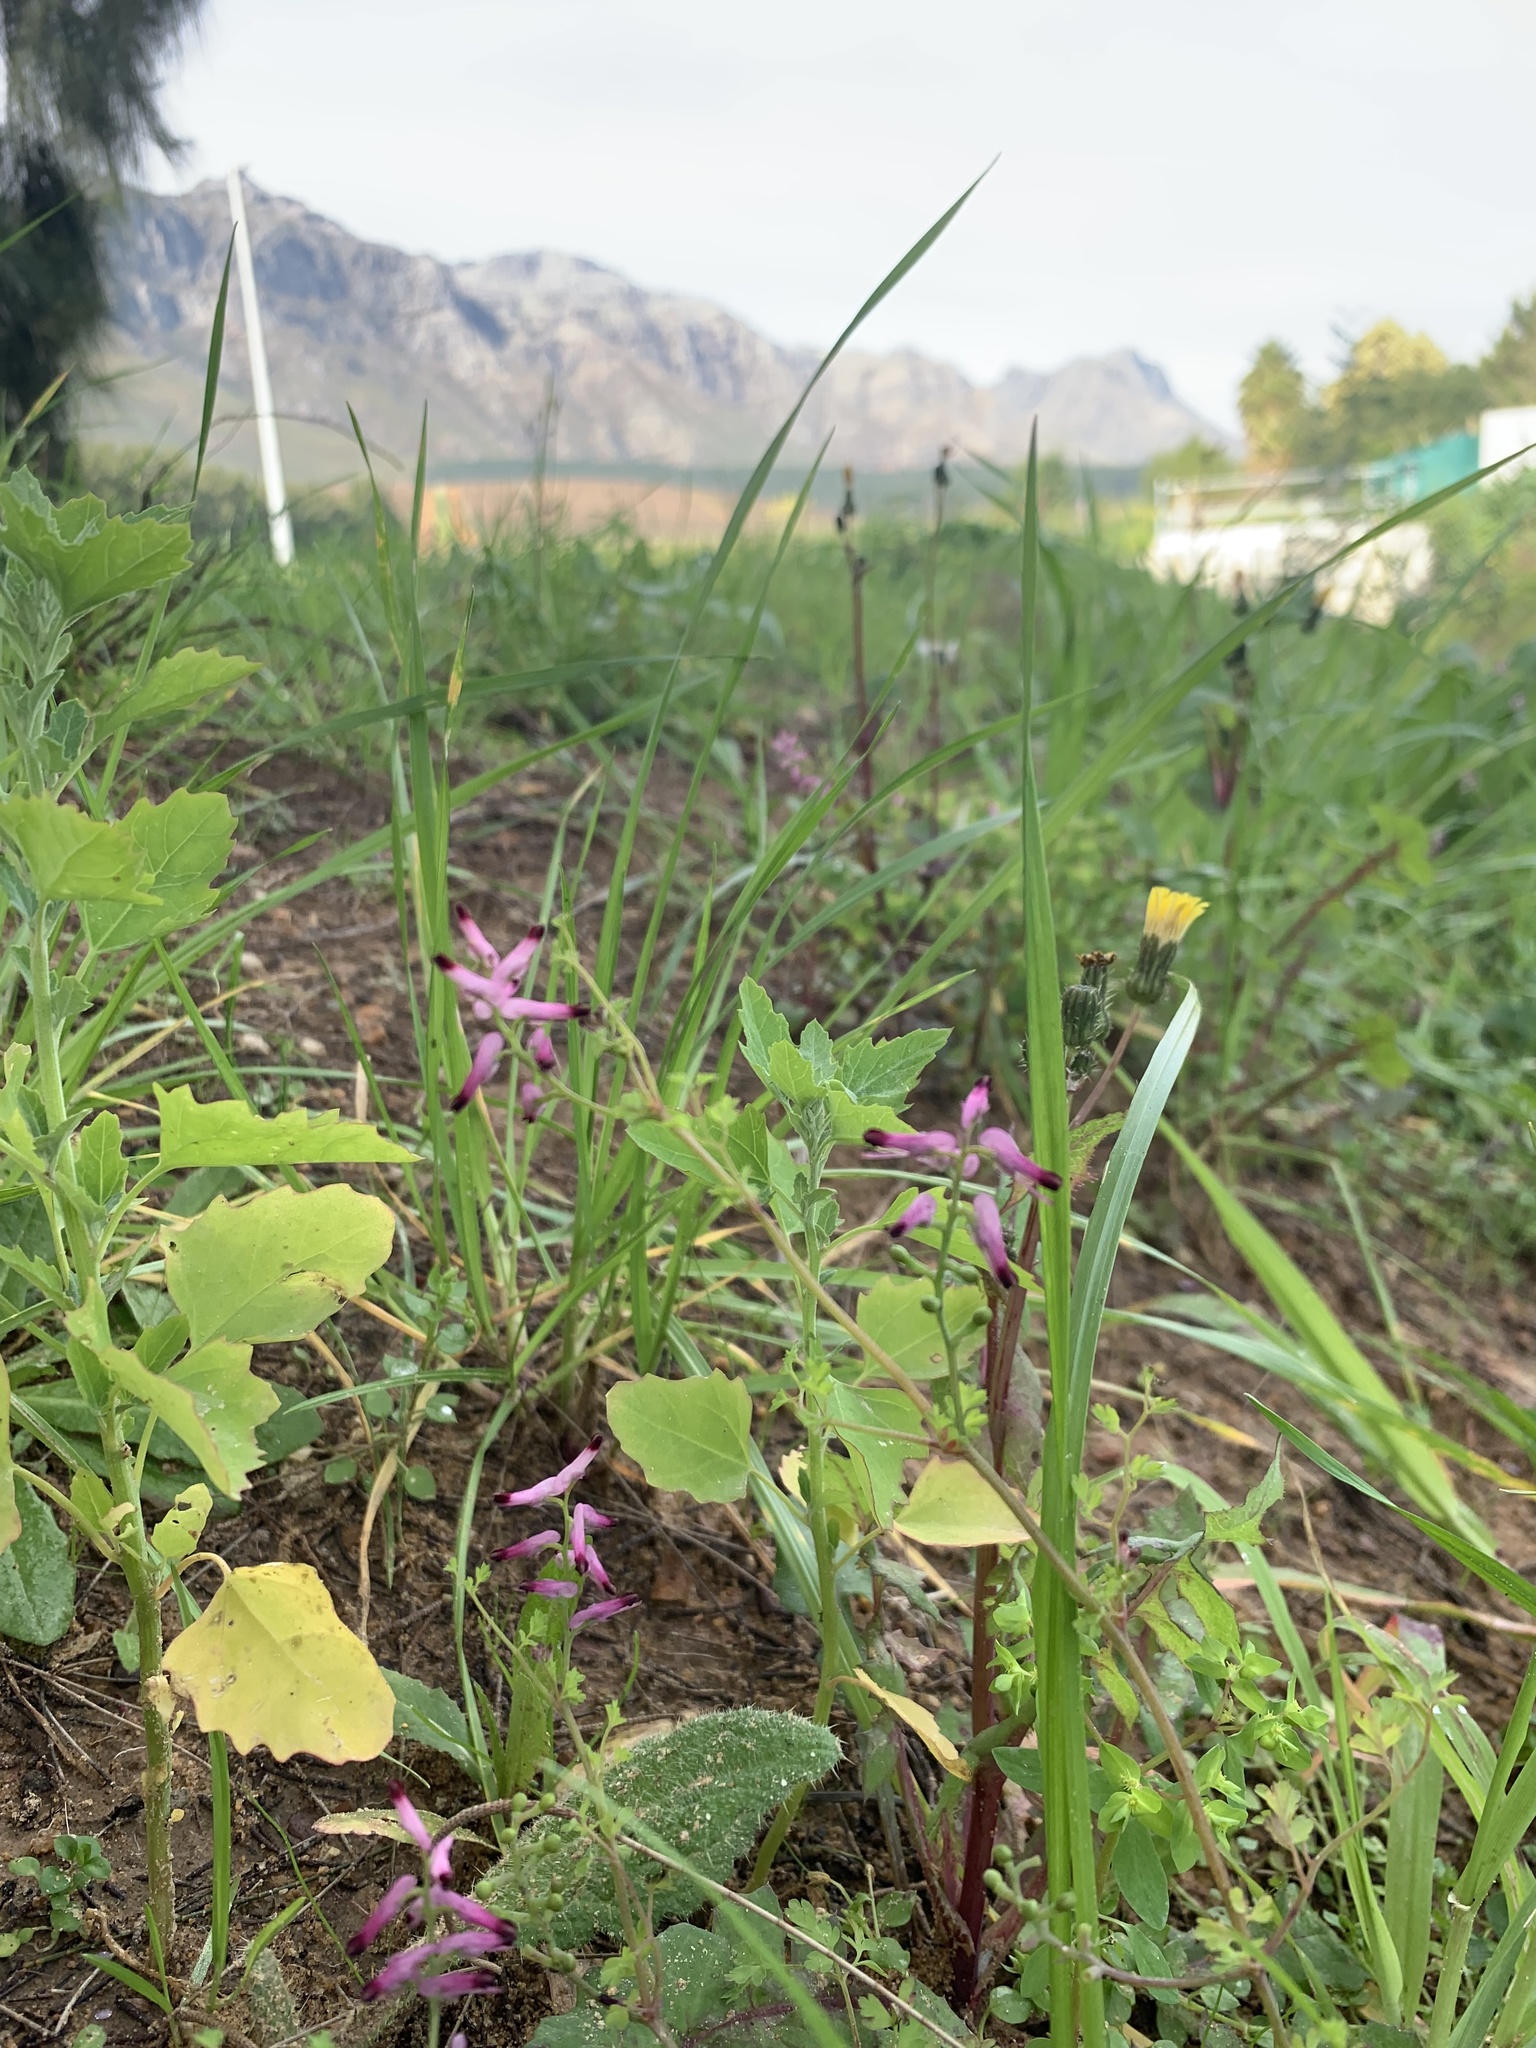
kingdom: Plantae
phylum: Tracheophyta
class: Magnoliopsida
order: Ranunculales
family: Papaveraceae
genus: Fumaria
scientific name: Fumaria muralis
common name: Common ramping-fumitory
